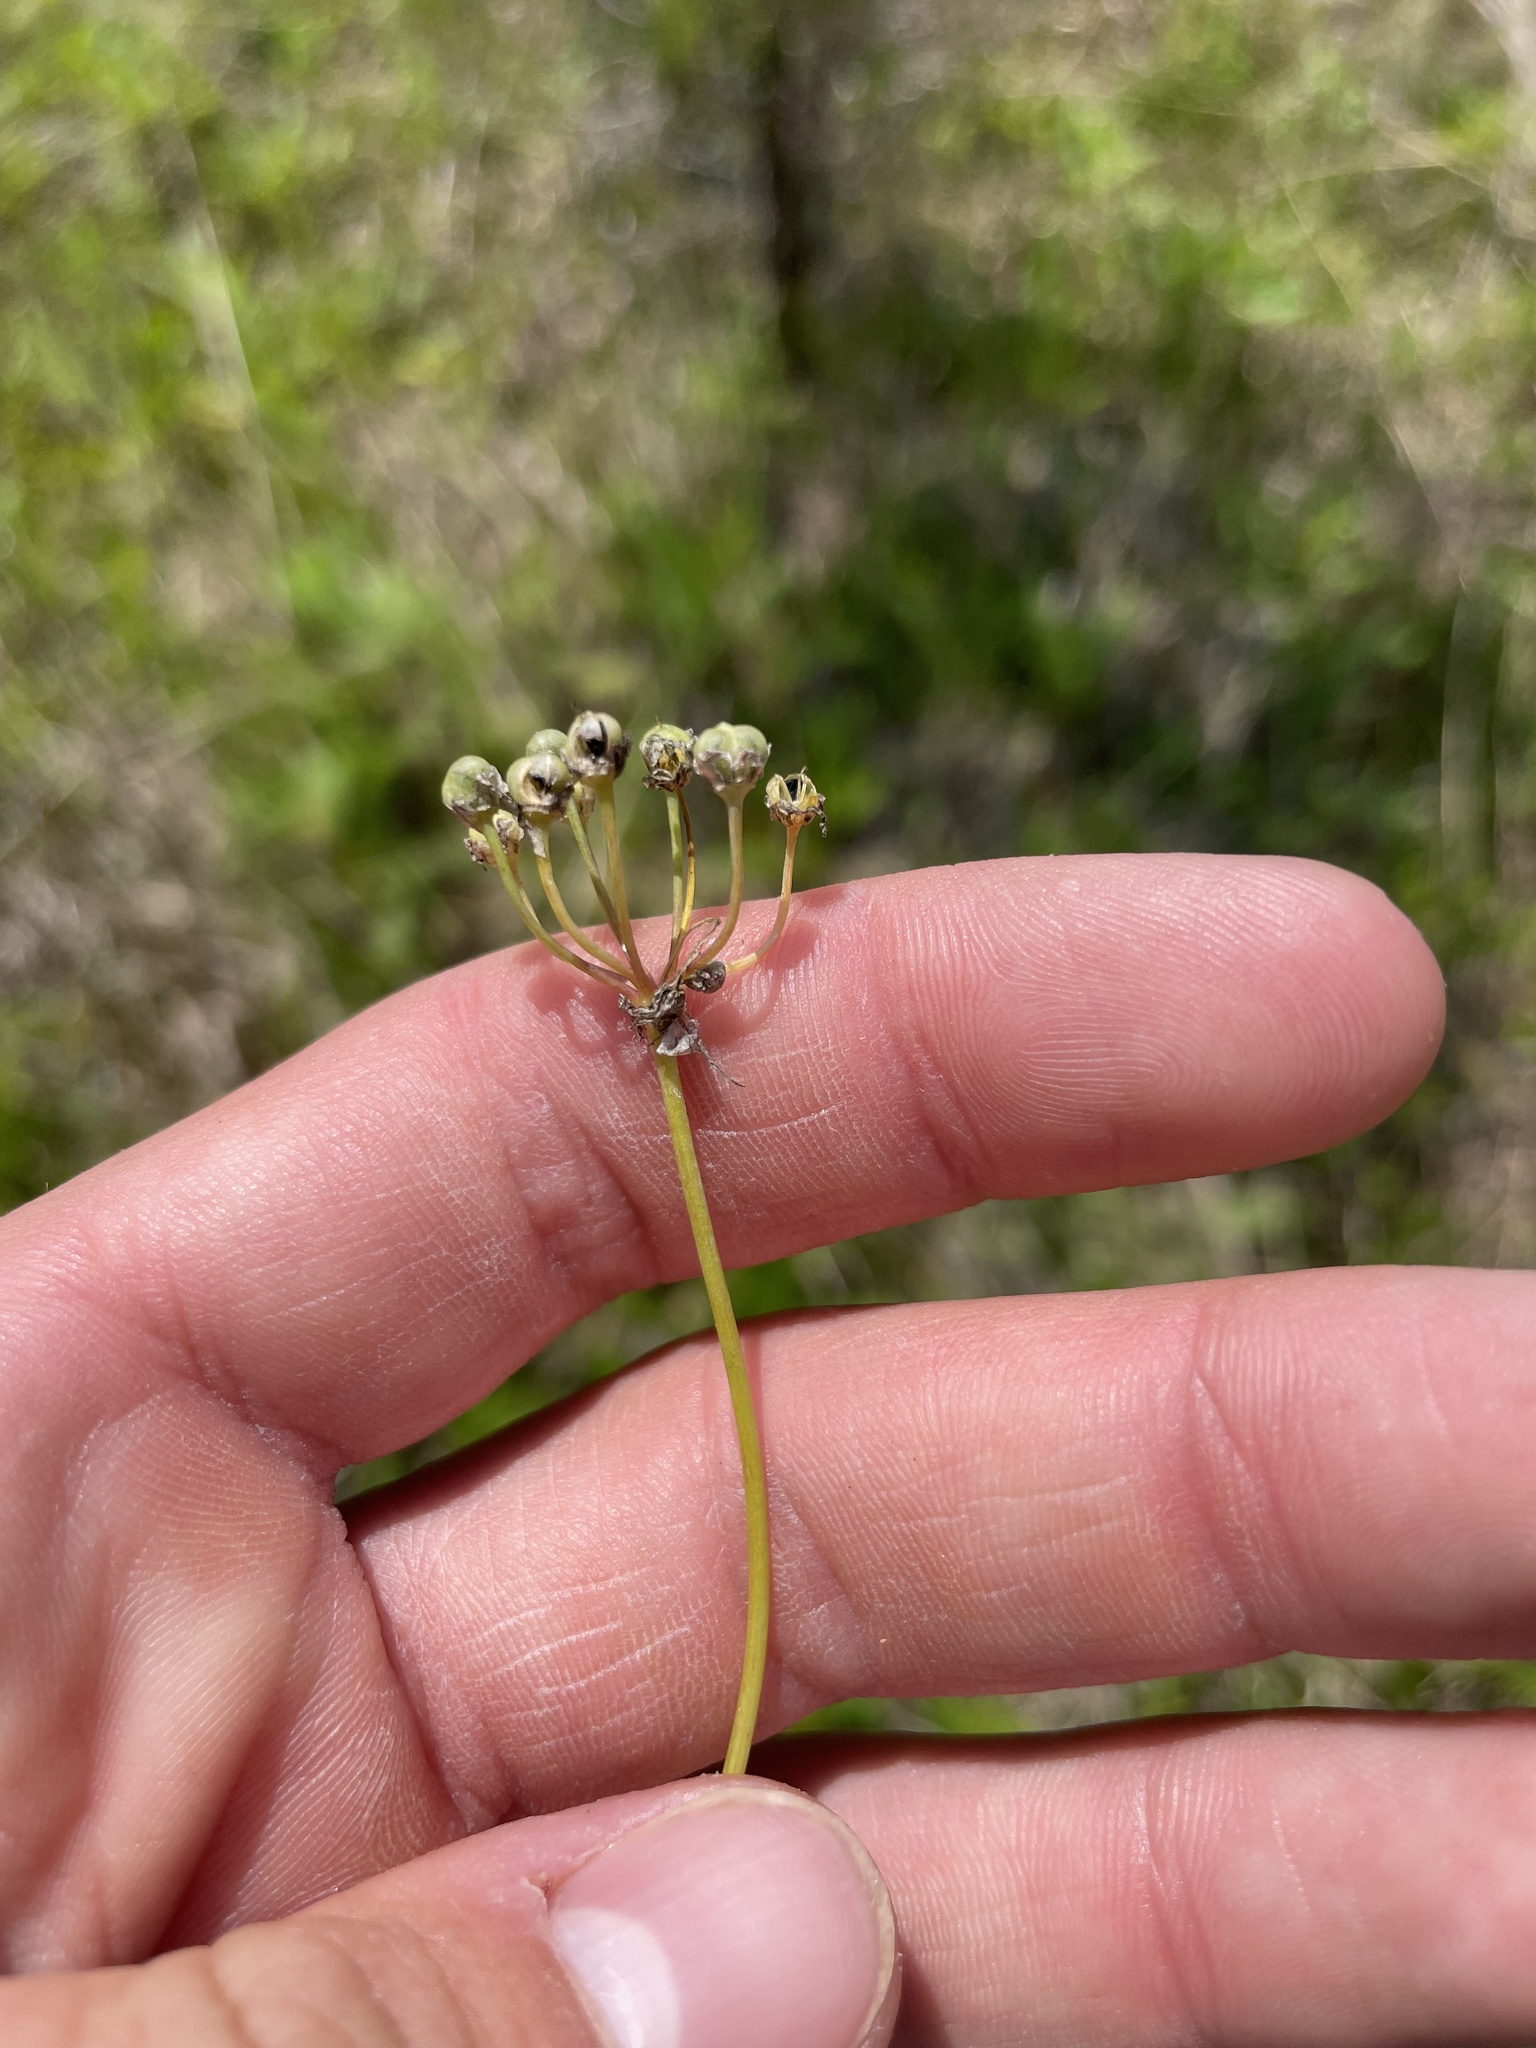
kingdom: Plantae
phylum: Tracheophyta
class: Liliopsida
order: Asparagales
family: Amaryllidaceae
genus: Allium
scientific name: Allium canadense
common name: Meadow garlic
